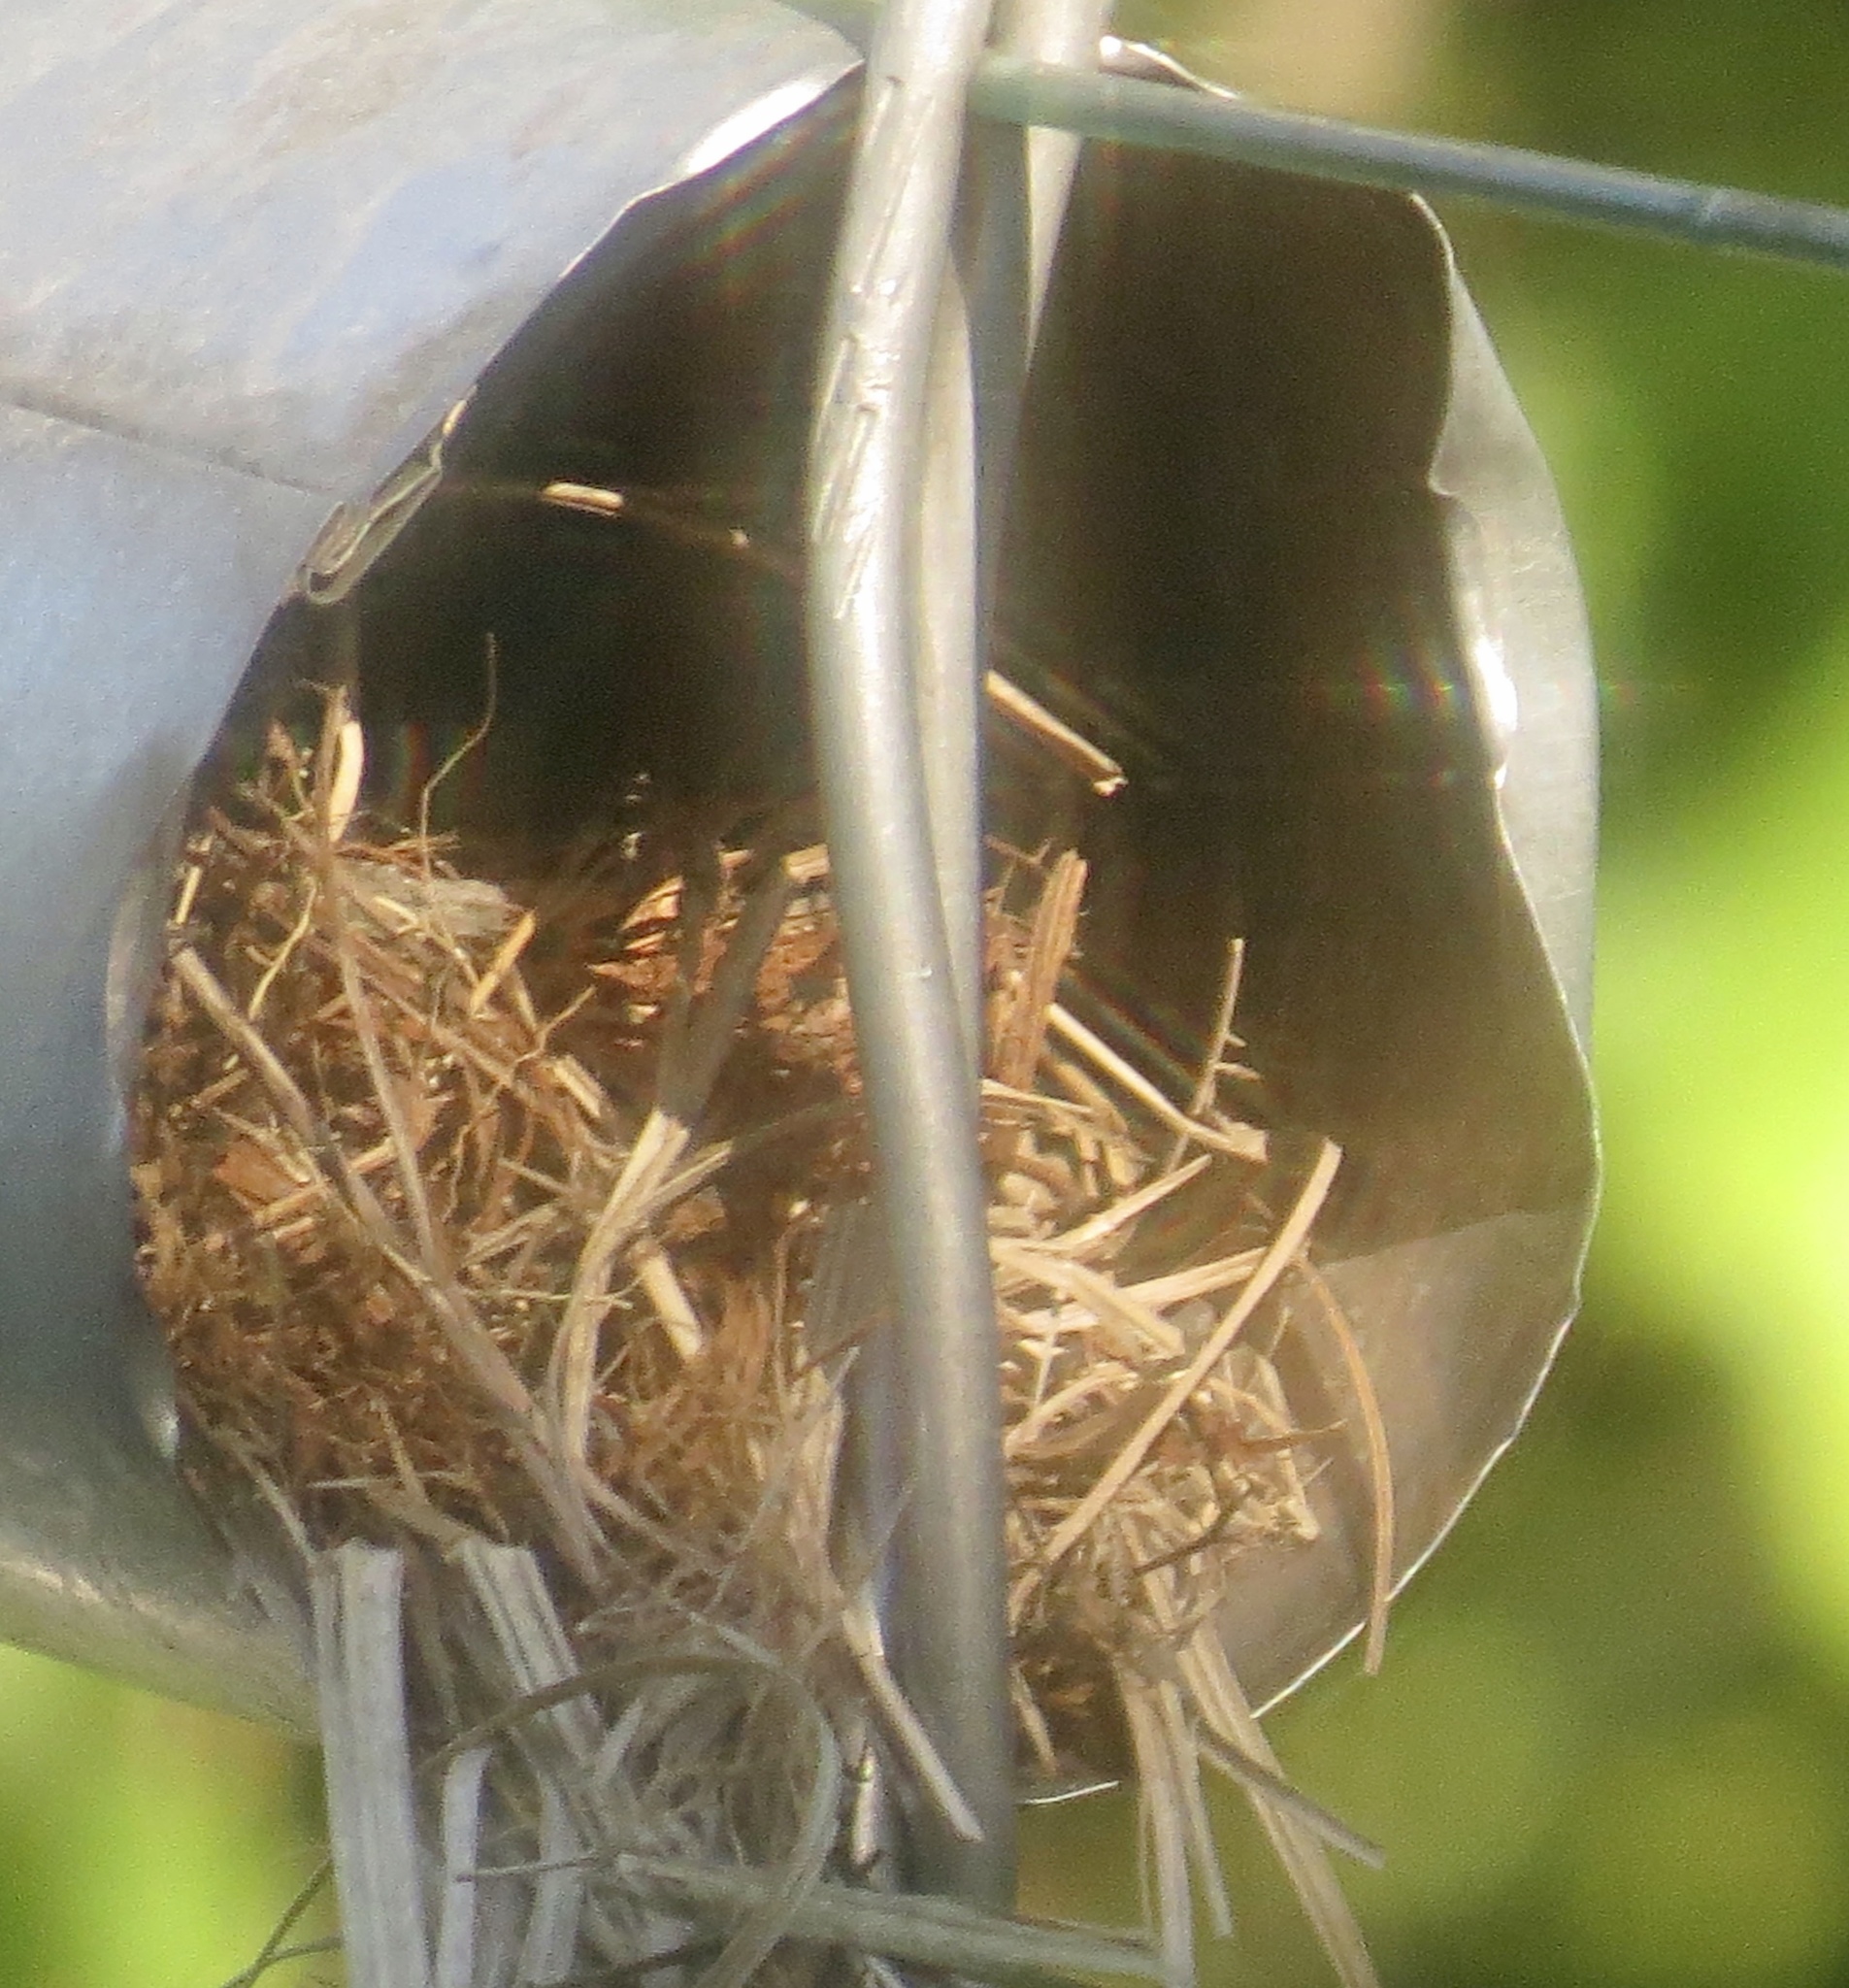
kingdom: Animalia
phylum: Chordata
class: Aves
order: Passeriformes
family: Passeridae
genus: Passer
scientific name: Passer domesticus
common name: House sparrow
